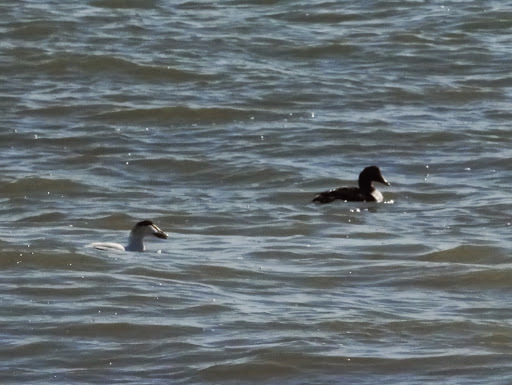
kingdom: Animalia
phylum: Chordata
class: Aves
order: Anseriformes
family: Anatidae
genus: Somateria
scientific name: Somateria mollissima
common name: Common eider
